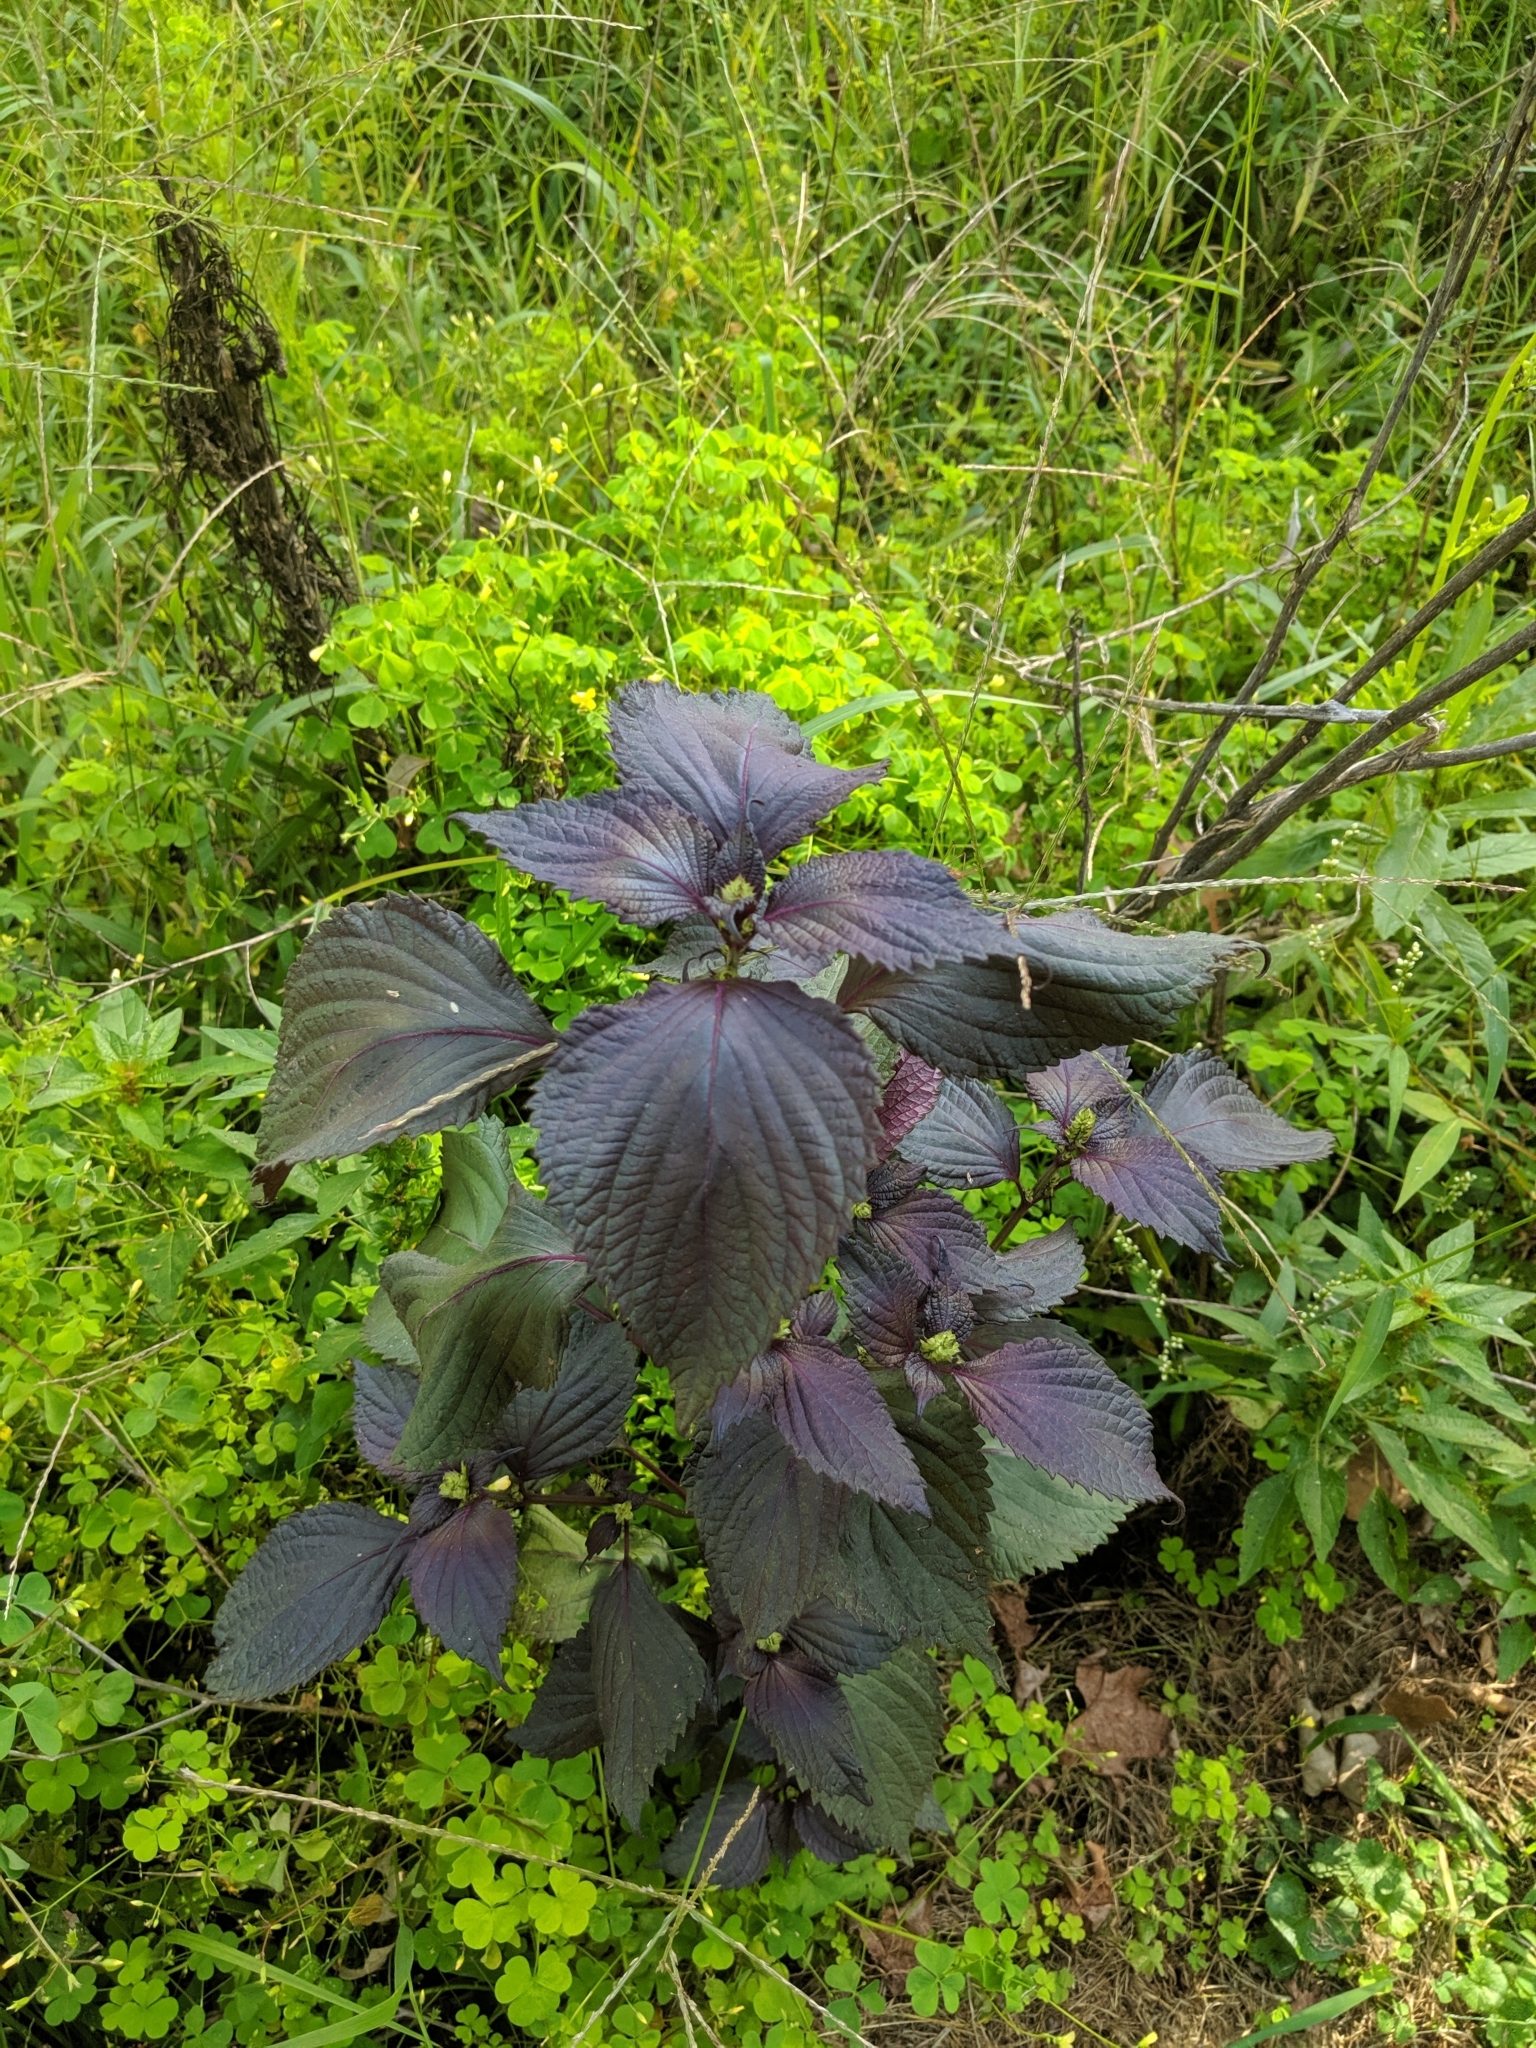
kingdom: Plantae
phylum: Tracheophyta
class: Magnoliopsida
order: Lamiales
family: Lamiaceae
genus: Perilla
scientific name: Perilla frutescens
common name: Perilla
